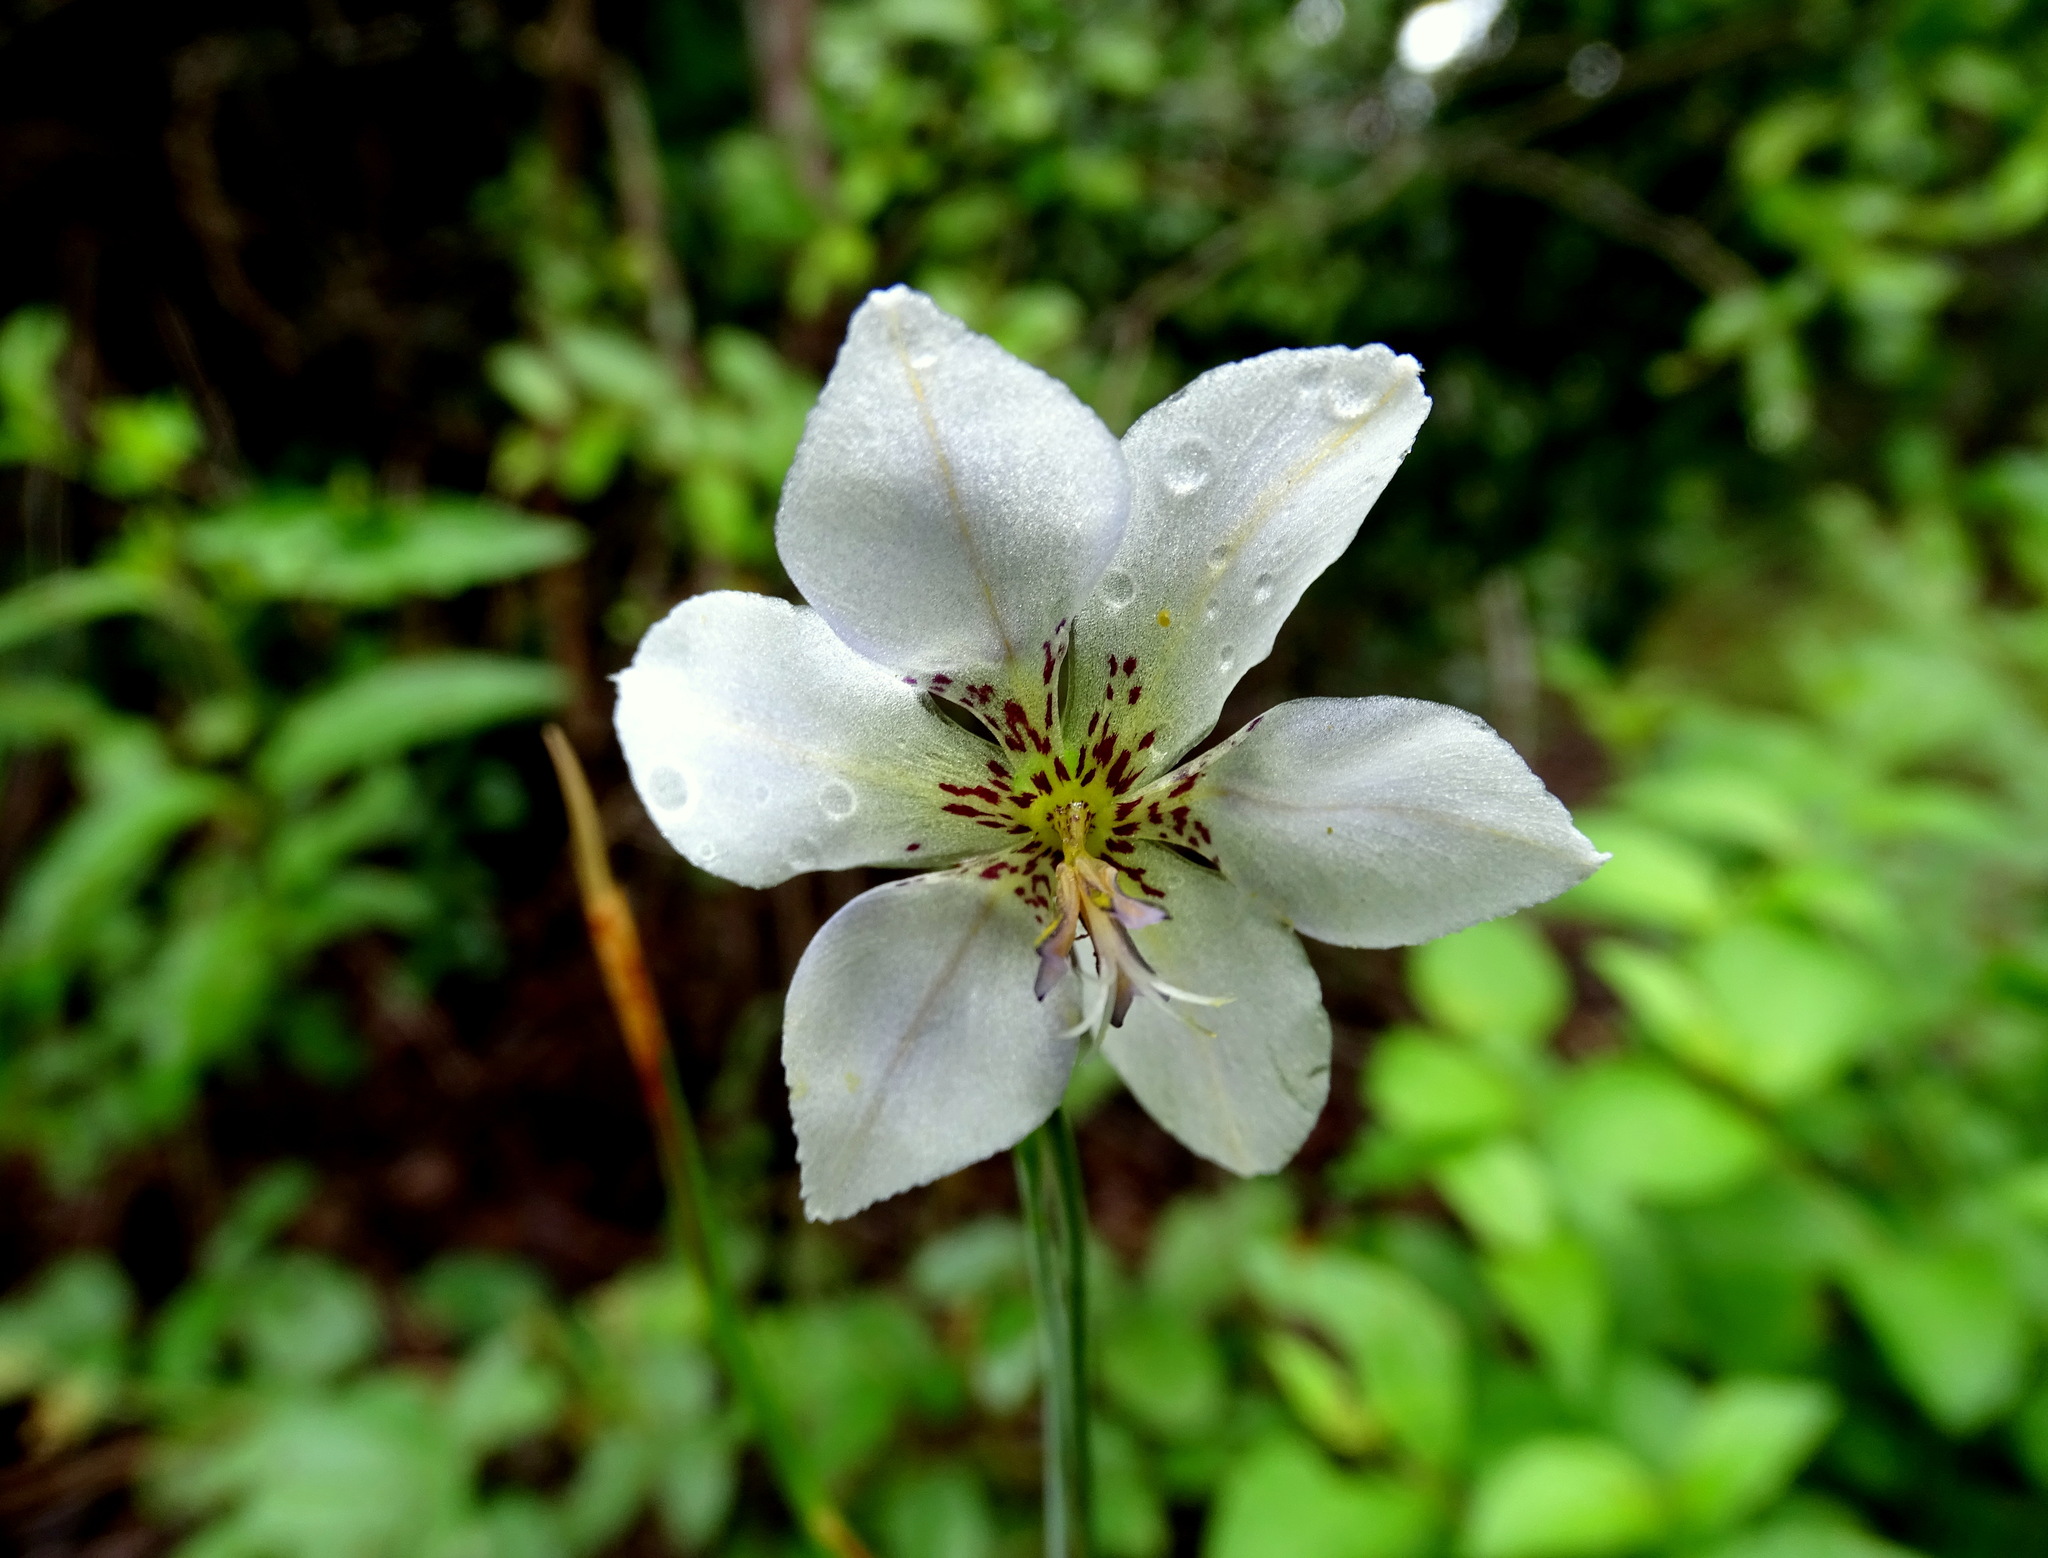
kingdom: Plantae
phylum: Tracheophyta
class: Liliopsida
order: Asparagales
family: Iridaceae
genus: Alophia
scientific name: Alophia silvestris
